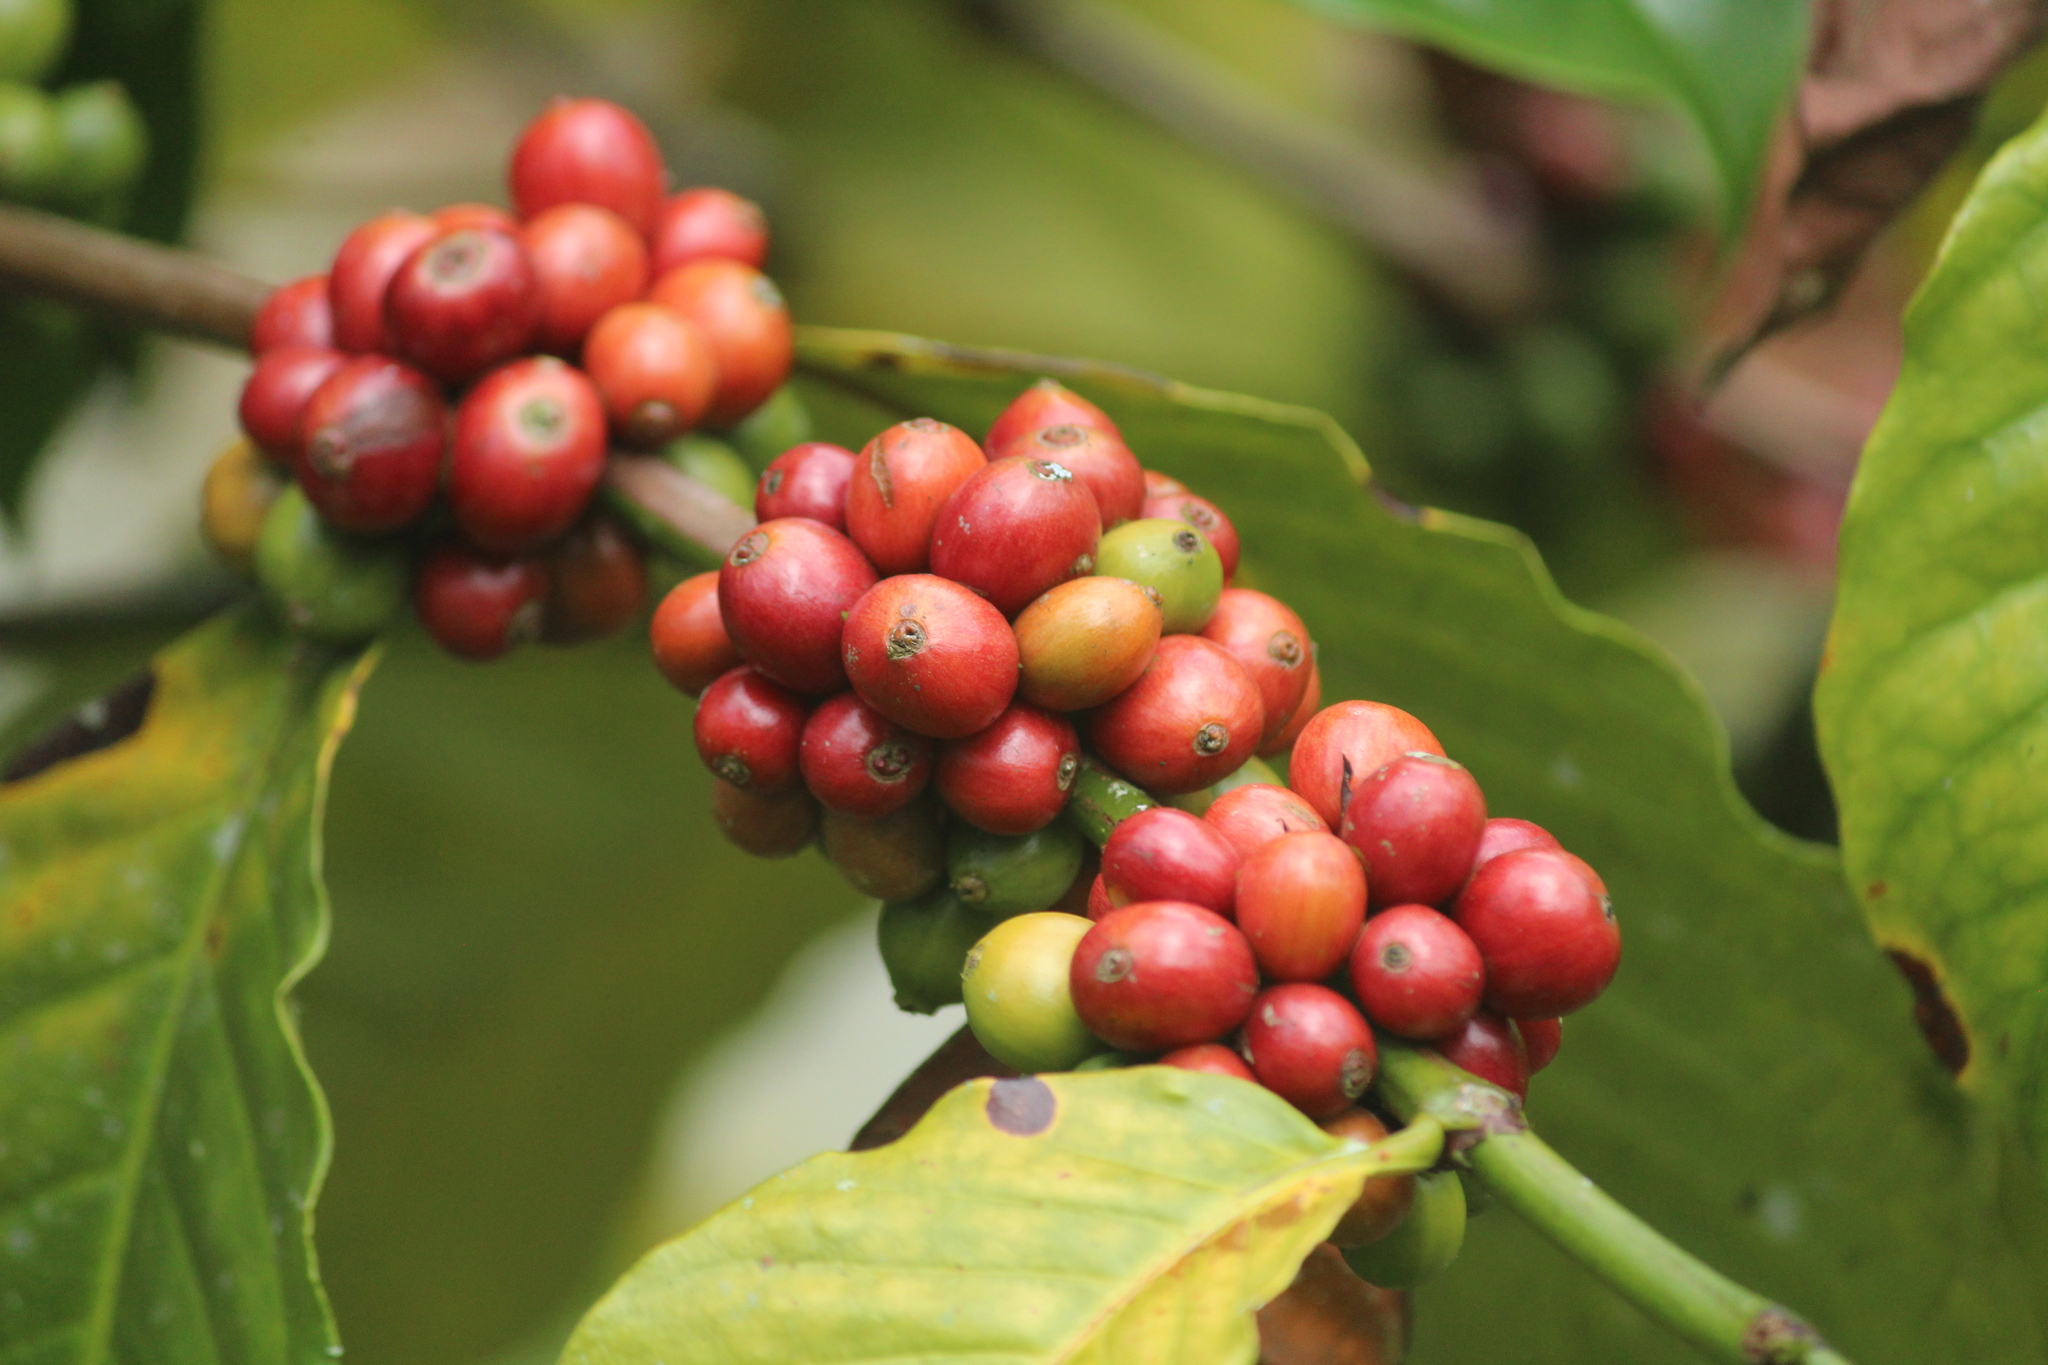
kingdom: Plantae
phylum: Tracheophyta
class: Magnoliopsida
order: Gentianales
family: Rubiaceae
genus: Coffea
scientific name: Coffea arabica
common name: Coffee
